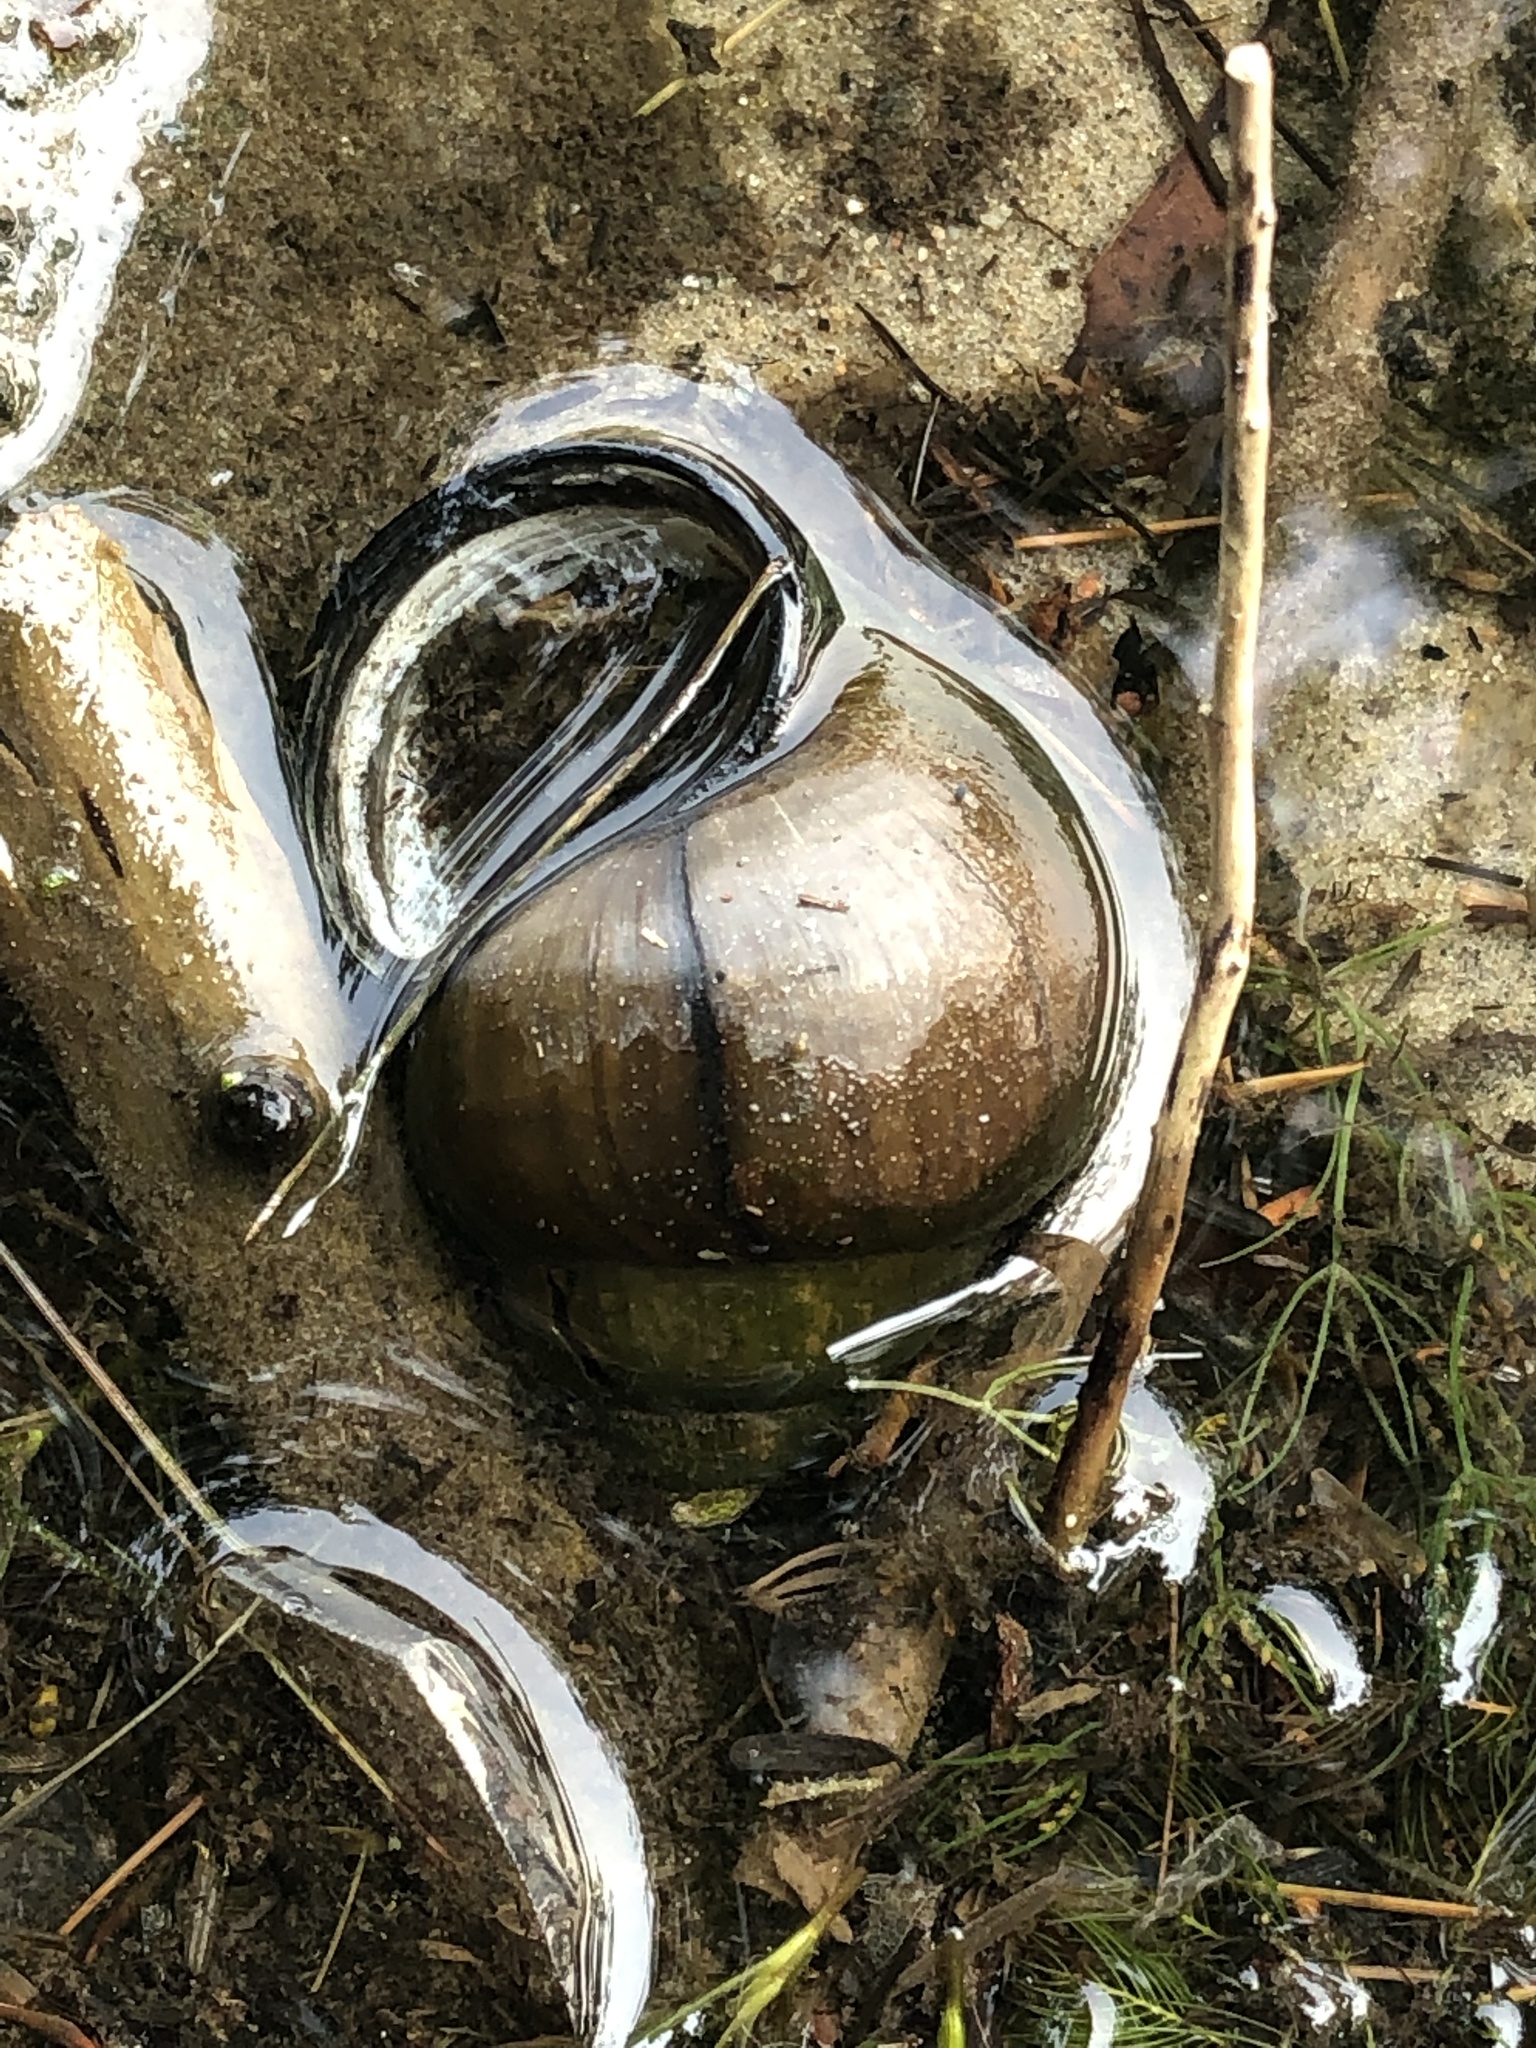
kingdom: Animalia
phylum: Mollusca
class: Gastropoda
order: Architaenioglossa
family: Viviparidae
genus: Cipangopaludina
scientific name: Cipangopaludina chinensis
